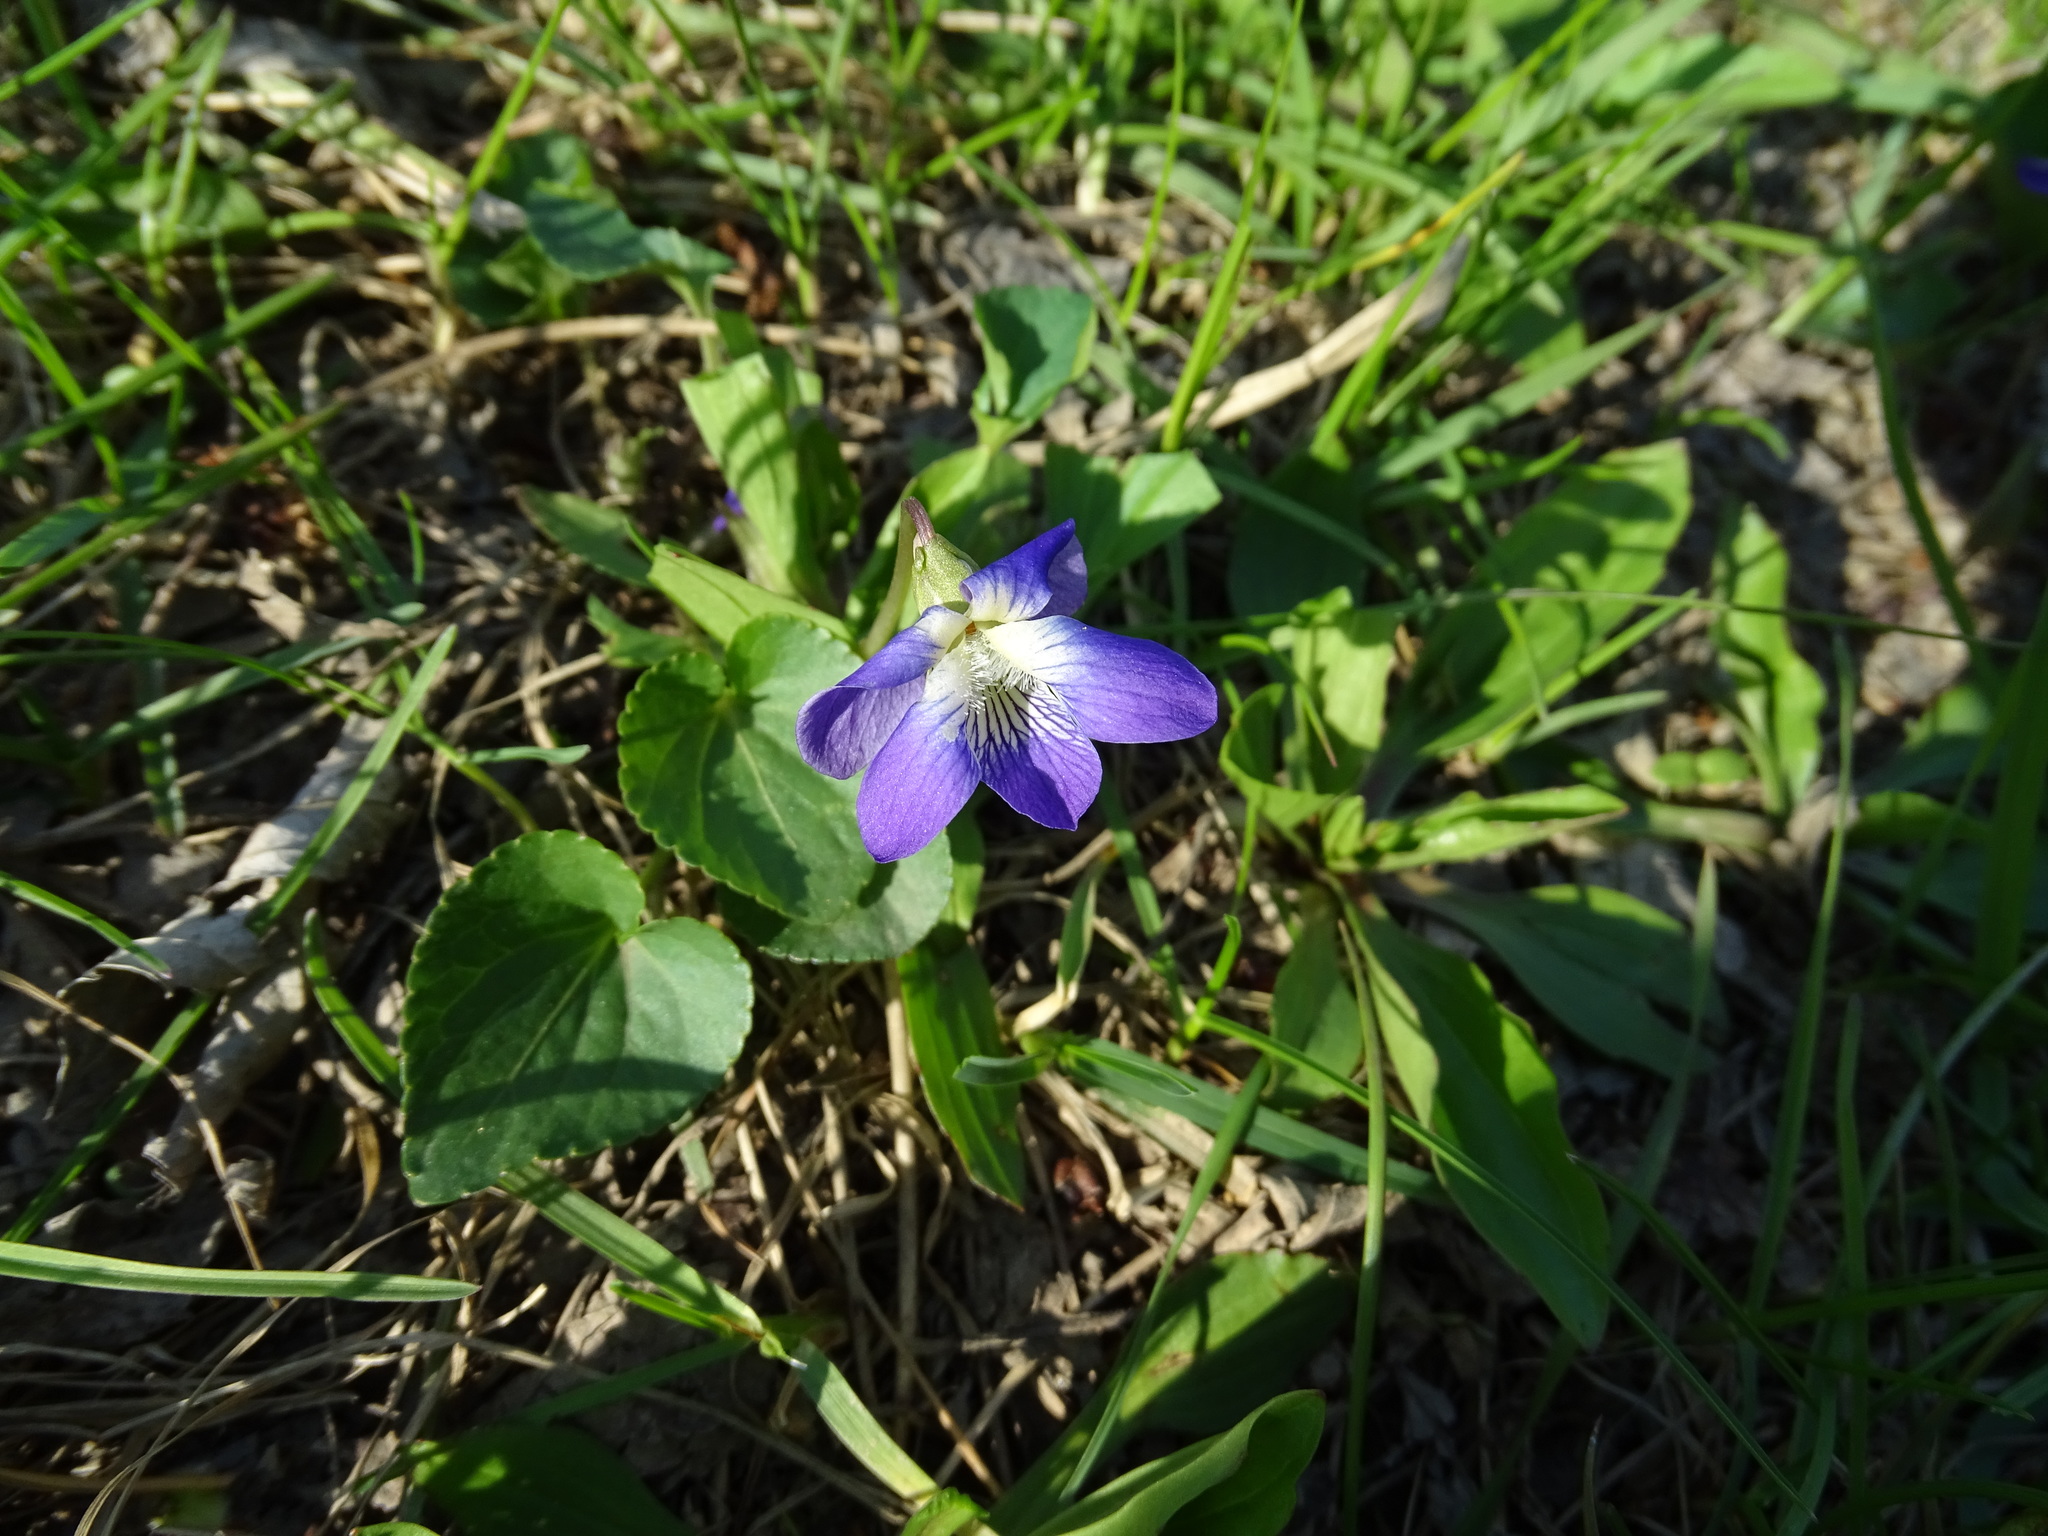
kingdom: Plantae
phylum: Tracheophyta
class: Magnoliopsida
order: Malpighiales
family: Violaceae
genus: Viola
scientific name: Viola sororia
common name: Dooryard violet
